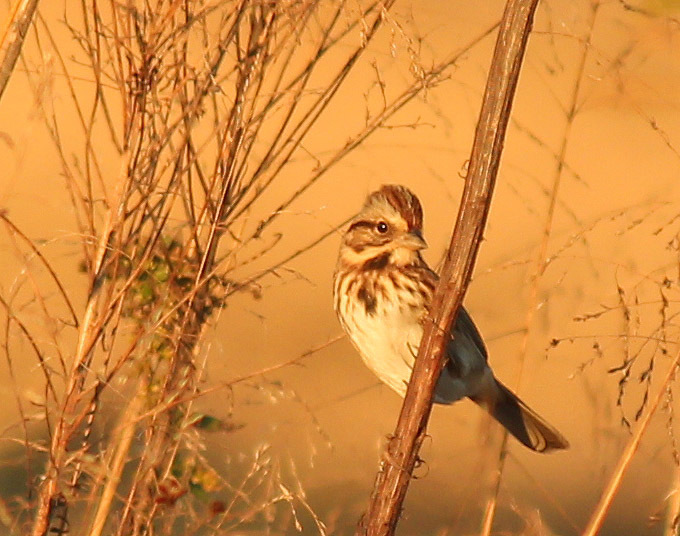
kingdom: Animalia
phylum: Chordata
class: Aves
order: Passeriformes
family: Passerellidae
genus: Melospiza
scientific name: Melospiza melodia
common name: Song sparrow
